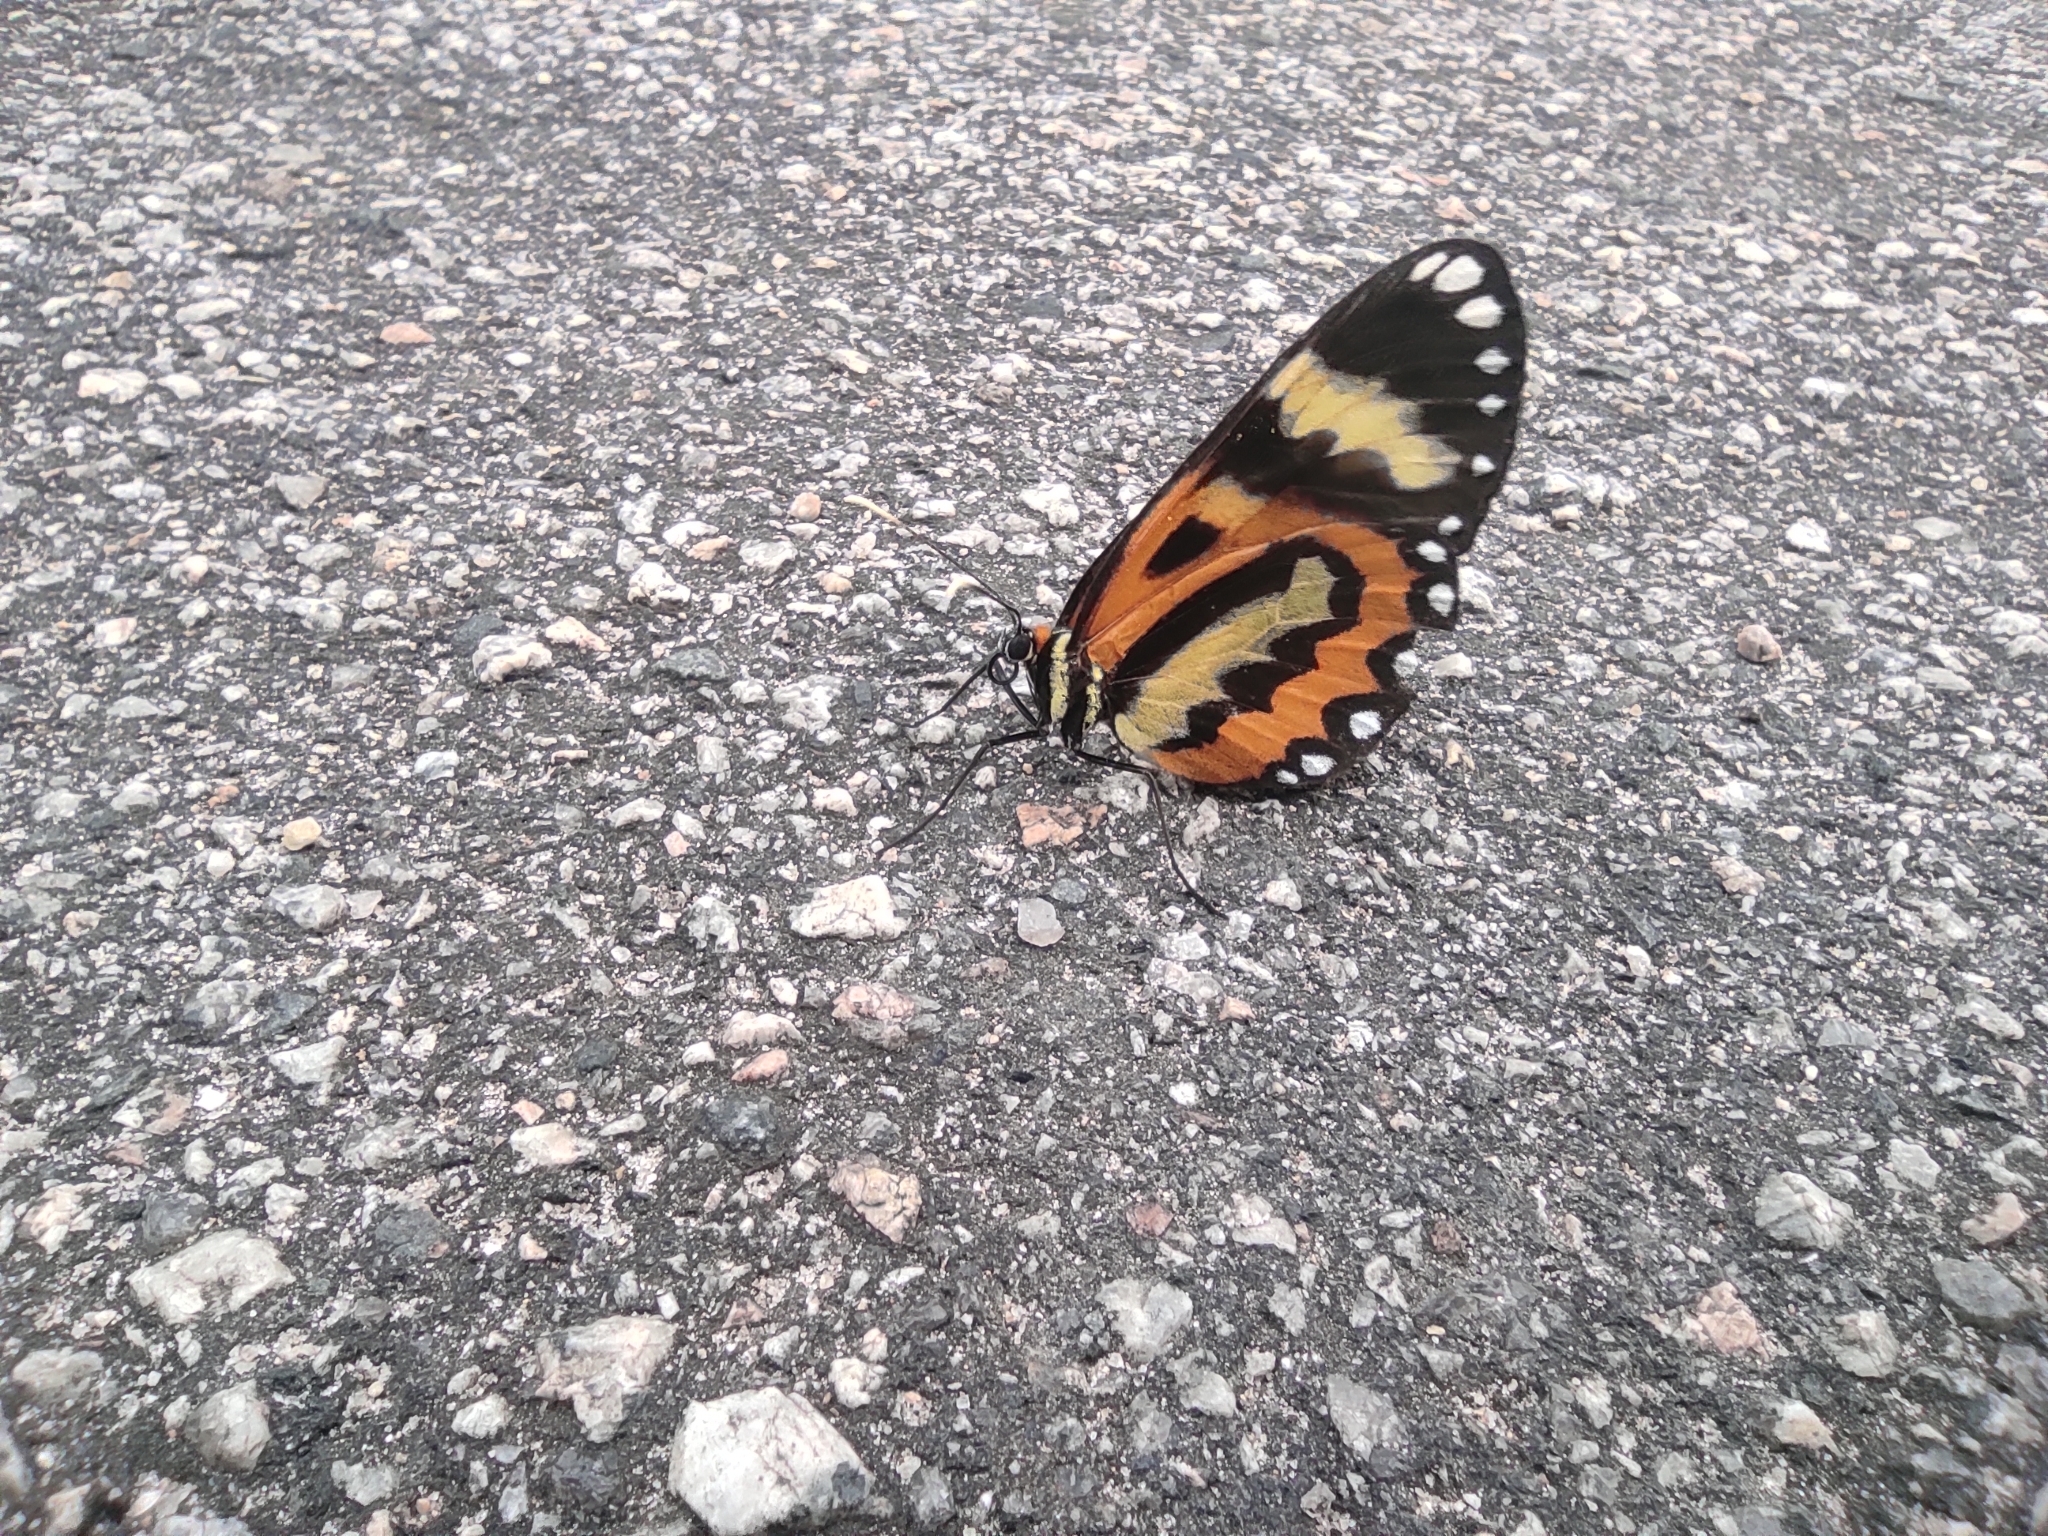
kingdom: Animalia
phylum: Arthropoda
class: Insecta
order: Lepidoptera
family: Nymphalidae
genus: Placidina
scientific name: Placidina euryanassa
